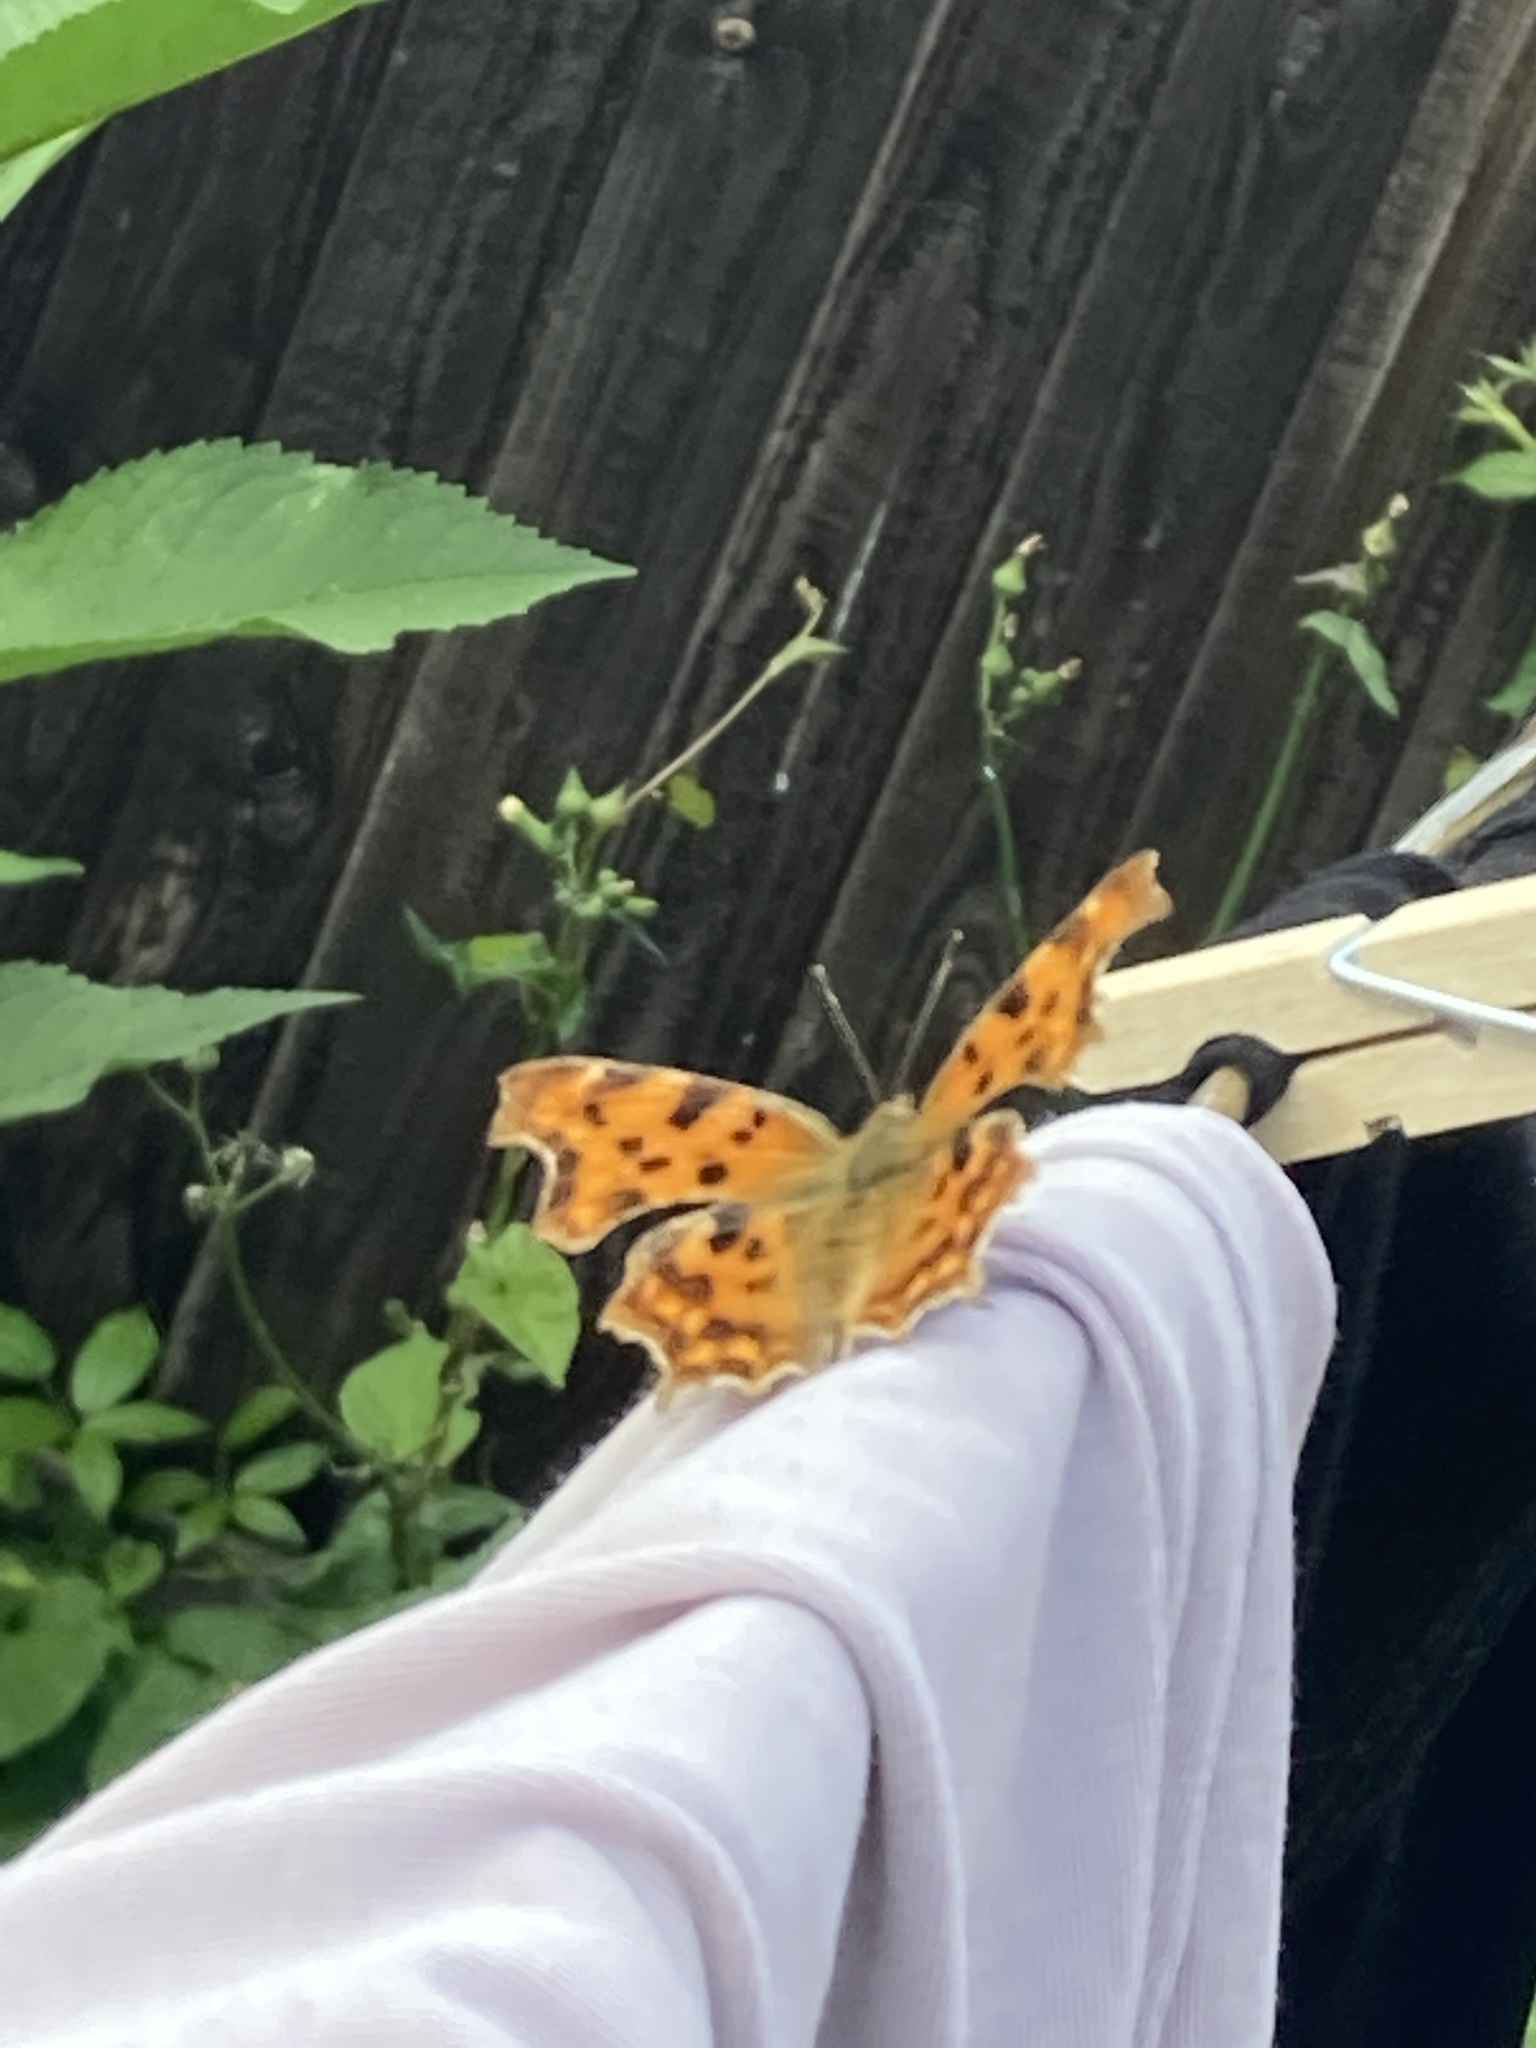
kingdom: Animalia
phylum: Arthropoda
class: Insecta
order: Lepidoptera
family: Nymphalidae
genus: Polygonia
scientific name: Polygonia c-album
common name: Comma
